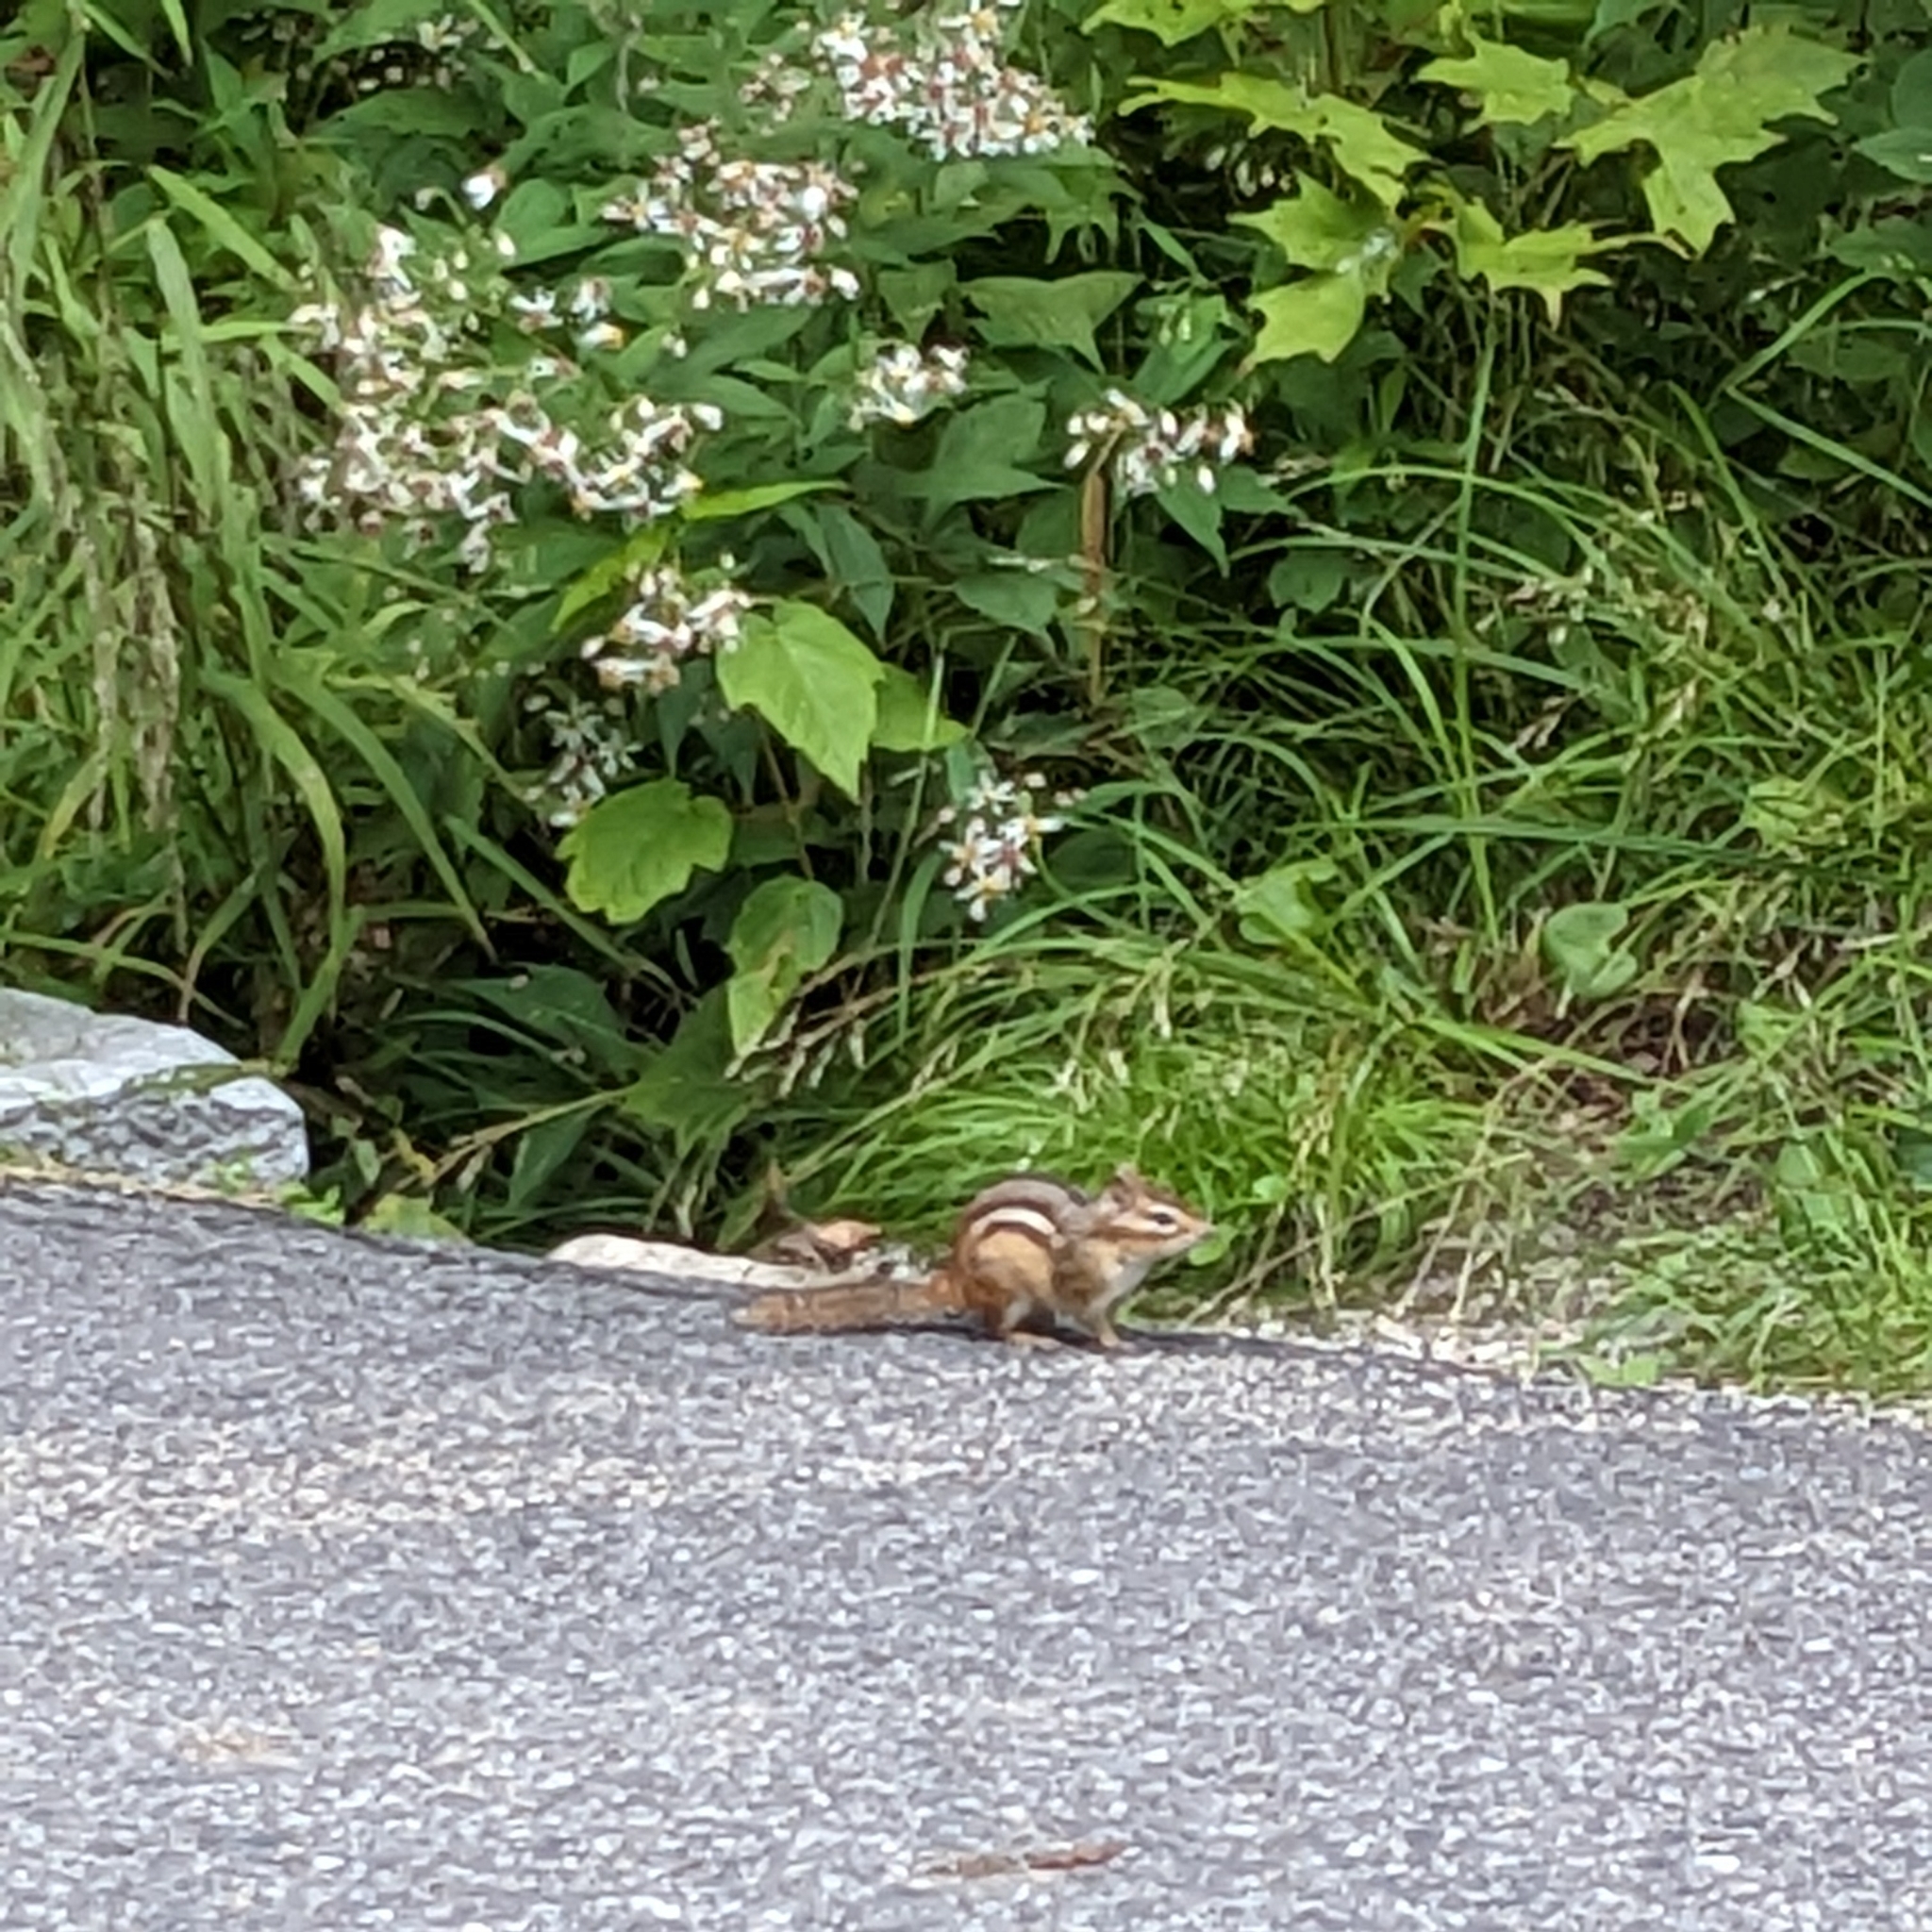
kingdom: Animalia
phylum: Chordata
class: Mammalia
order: Rodentia
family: Sciuridae
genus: Tamias
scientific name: Tamias striatus
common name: Eastern chipmunk
